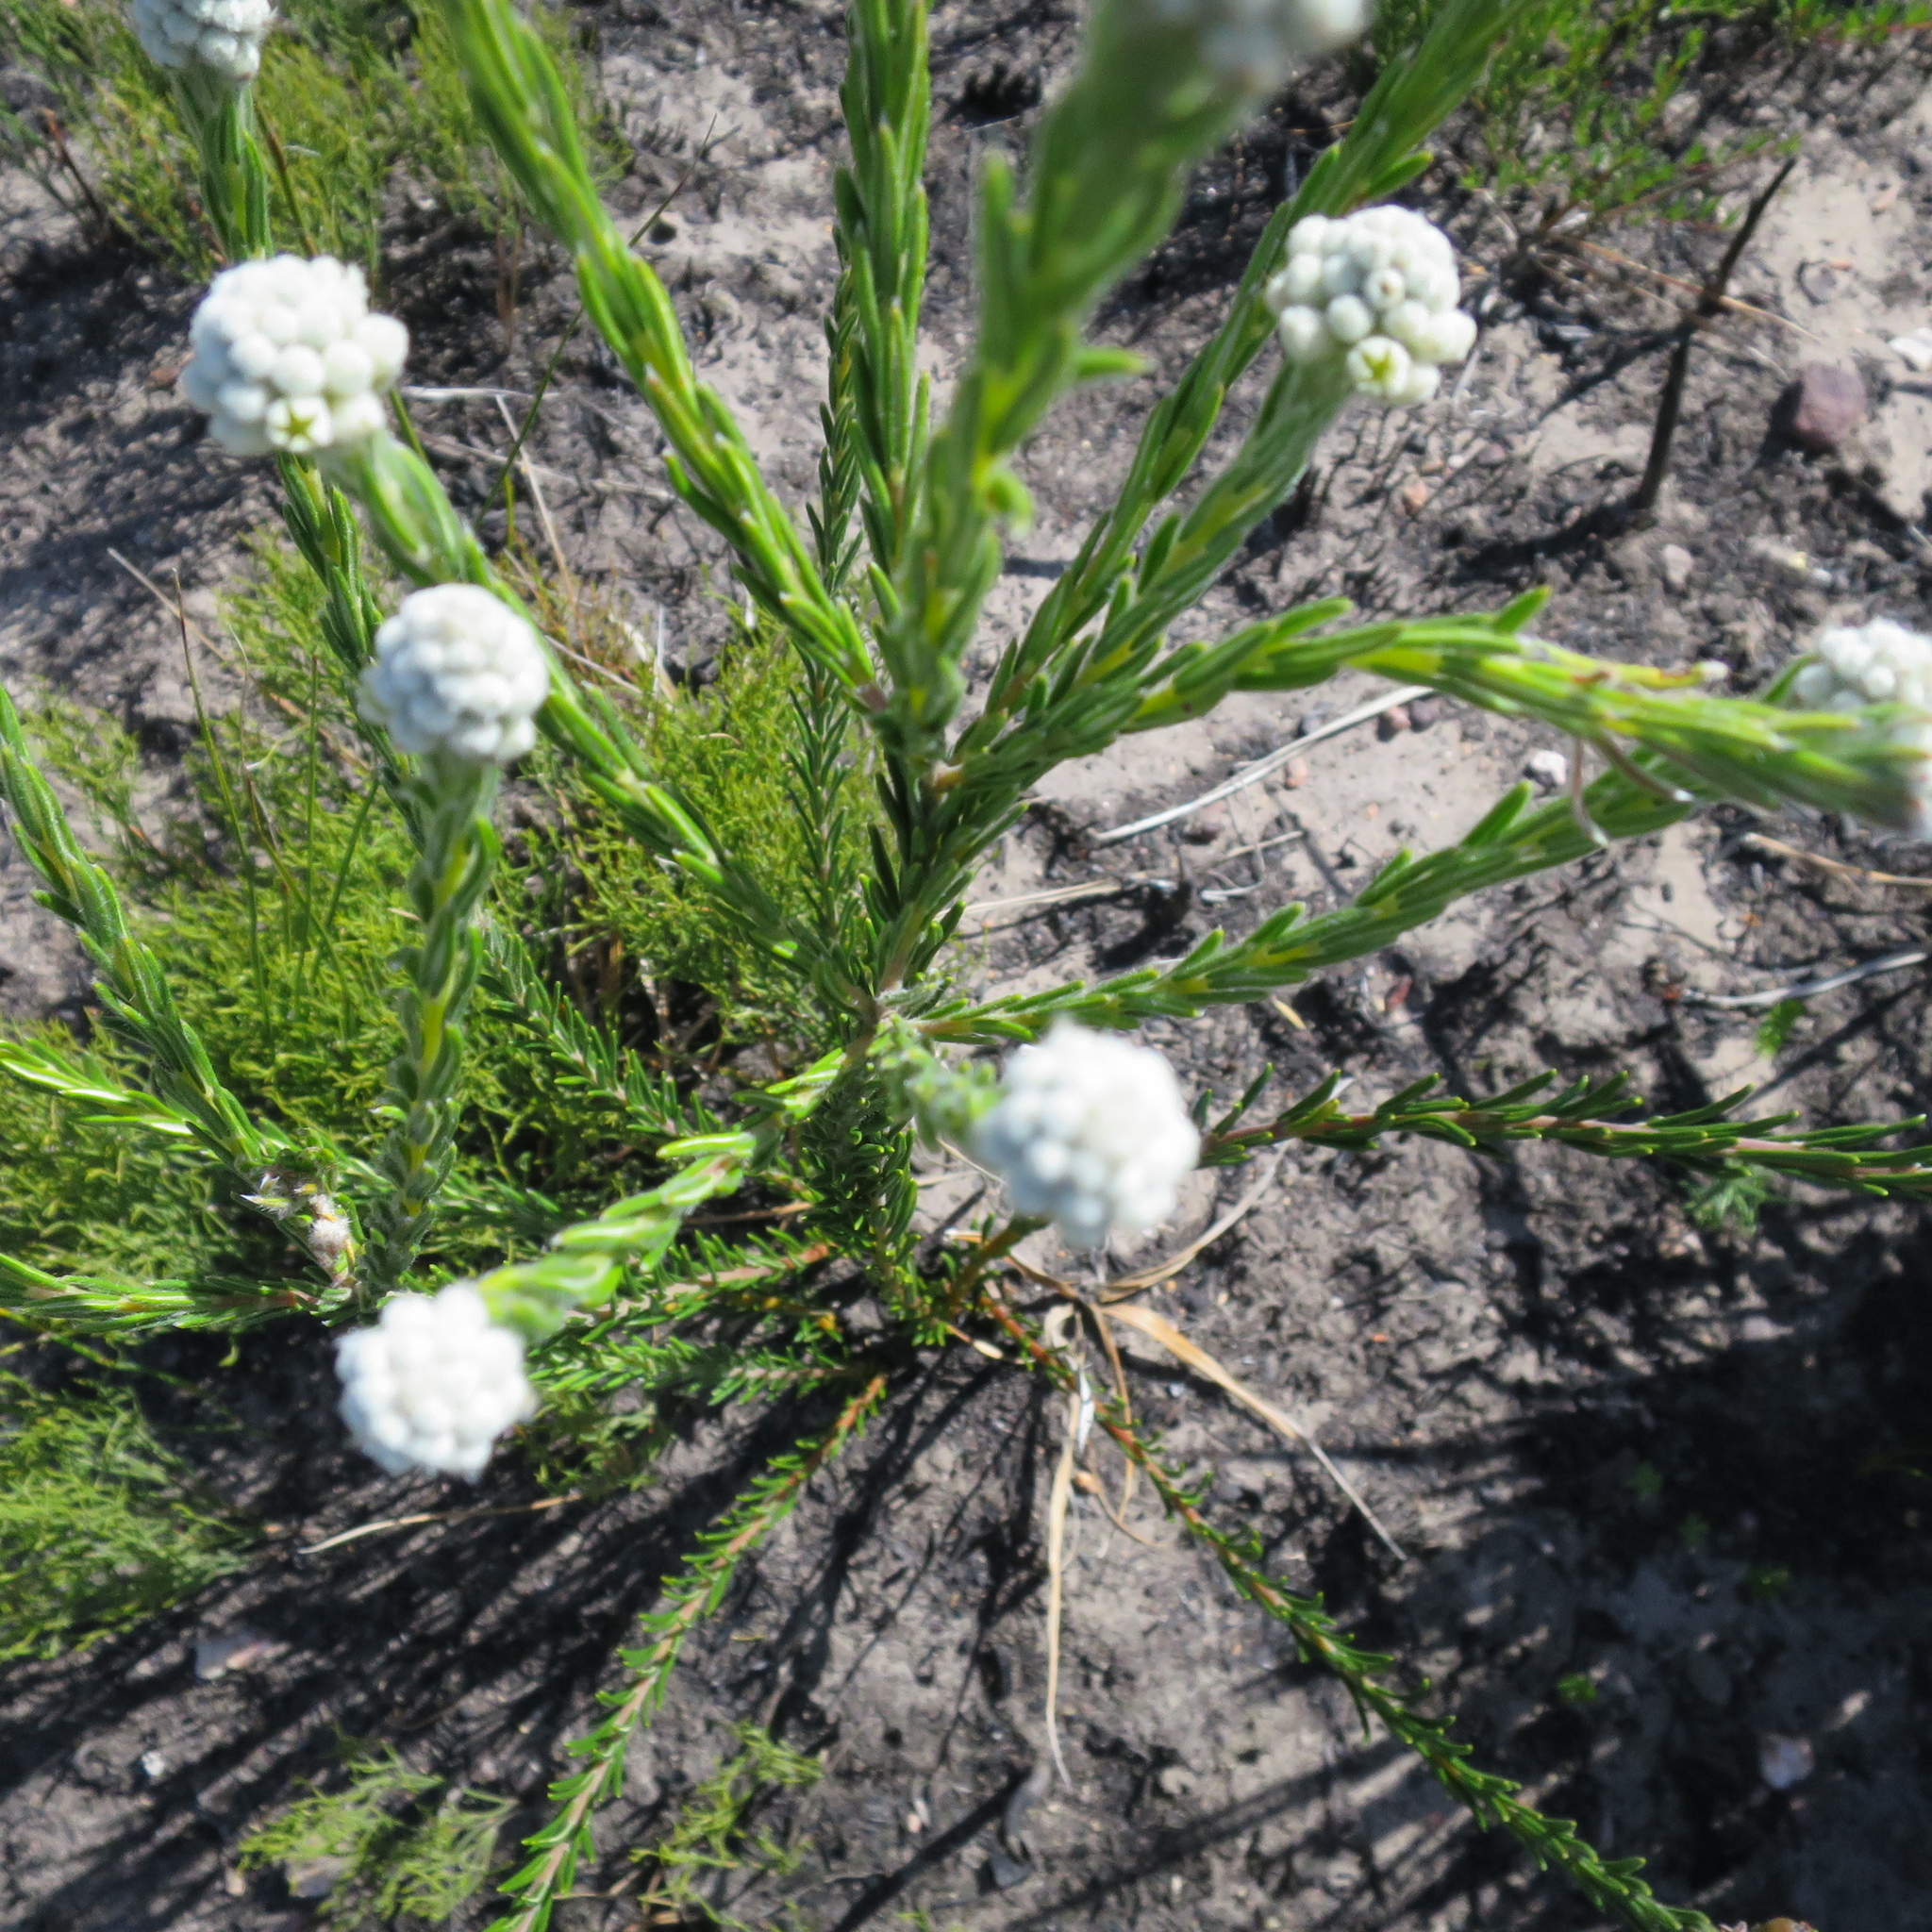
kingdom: Plantae
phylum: Tracheophyta
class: Magnoliopsida
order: Rosales
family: Rhamnaceae
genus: Phylica
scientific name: Phylica imberbis
